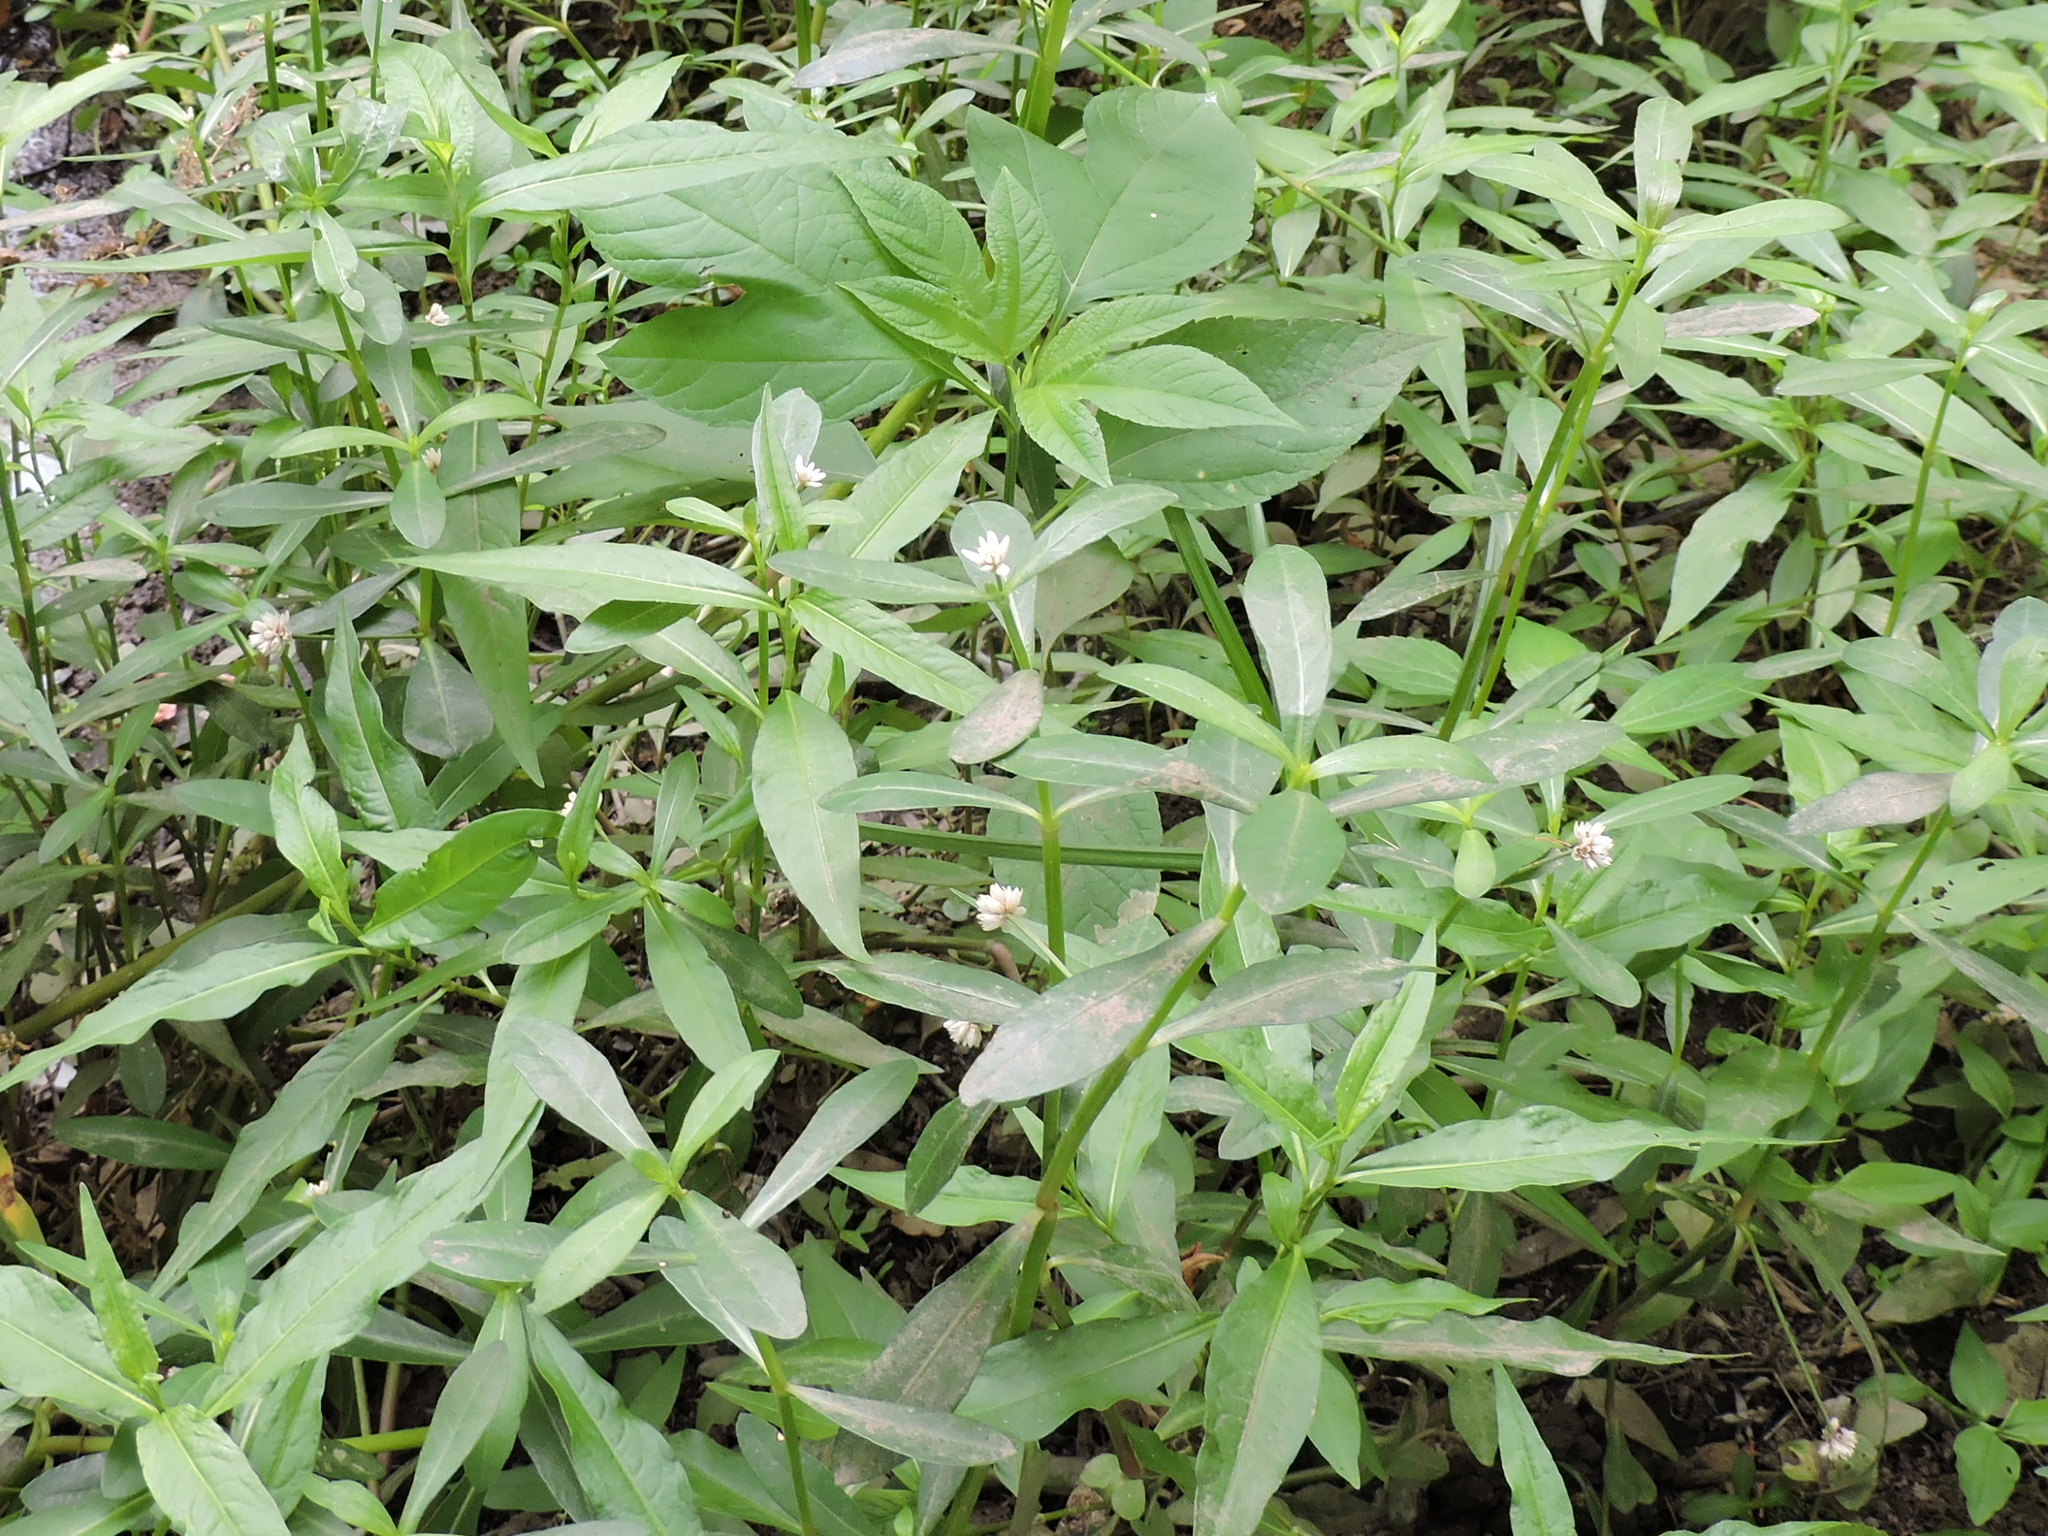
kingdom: Plantae
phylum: Tracheophyta
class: Magnoliopsida
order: Caryophyllales
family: Amaranthaceae
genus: Alternanthera
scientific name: Alternanthera philoxeroides
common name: Alligatorweed
